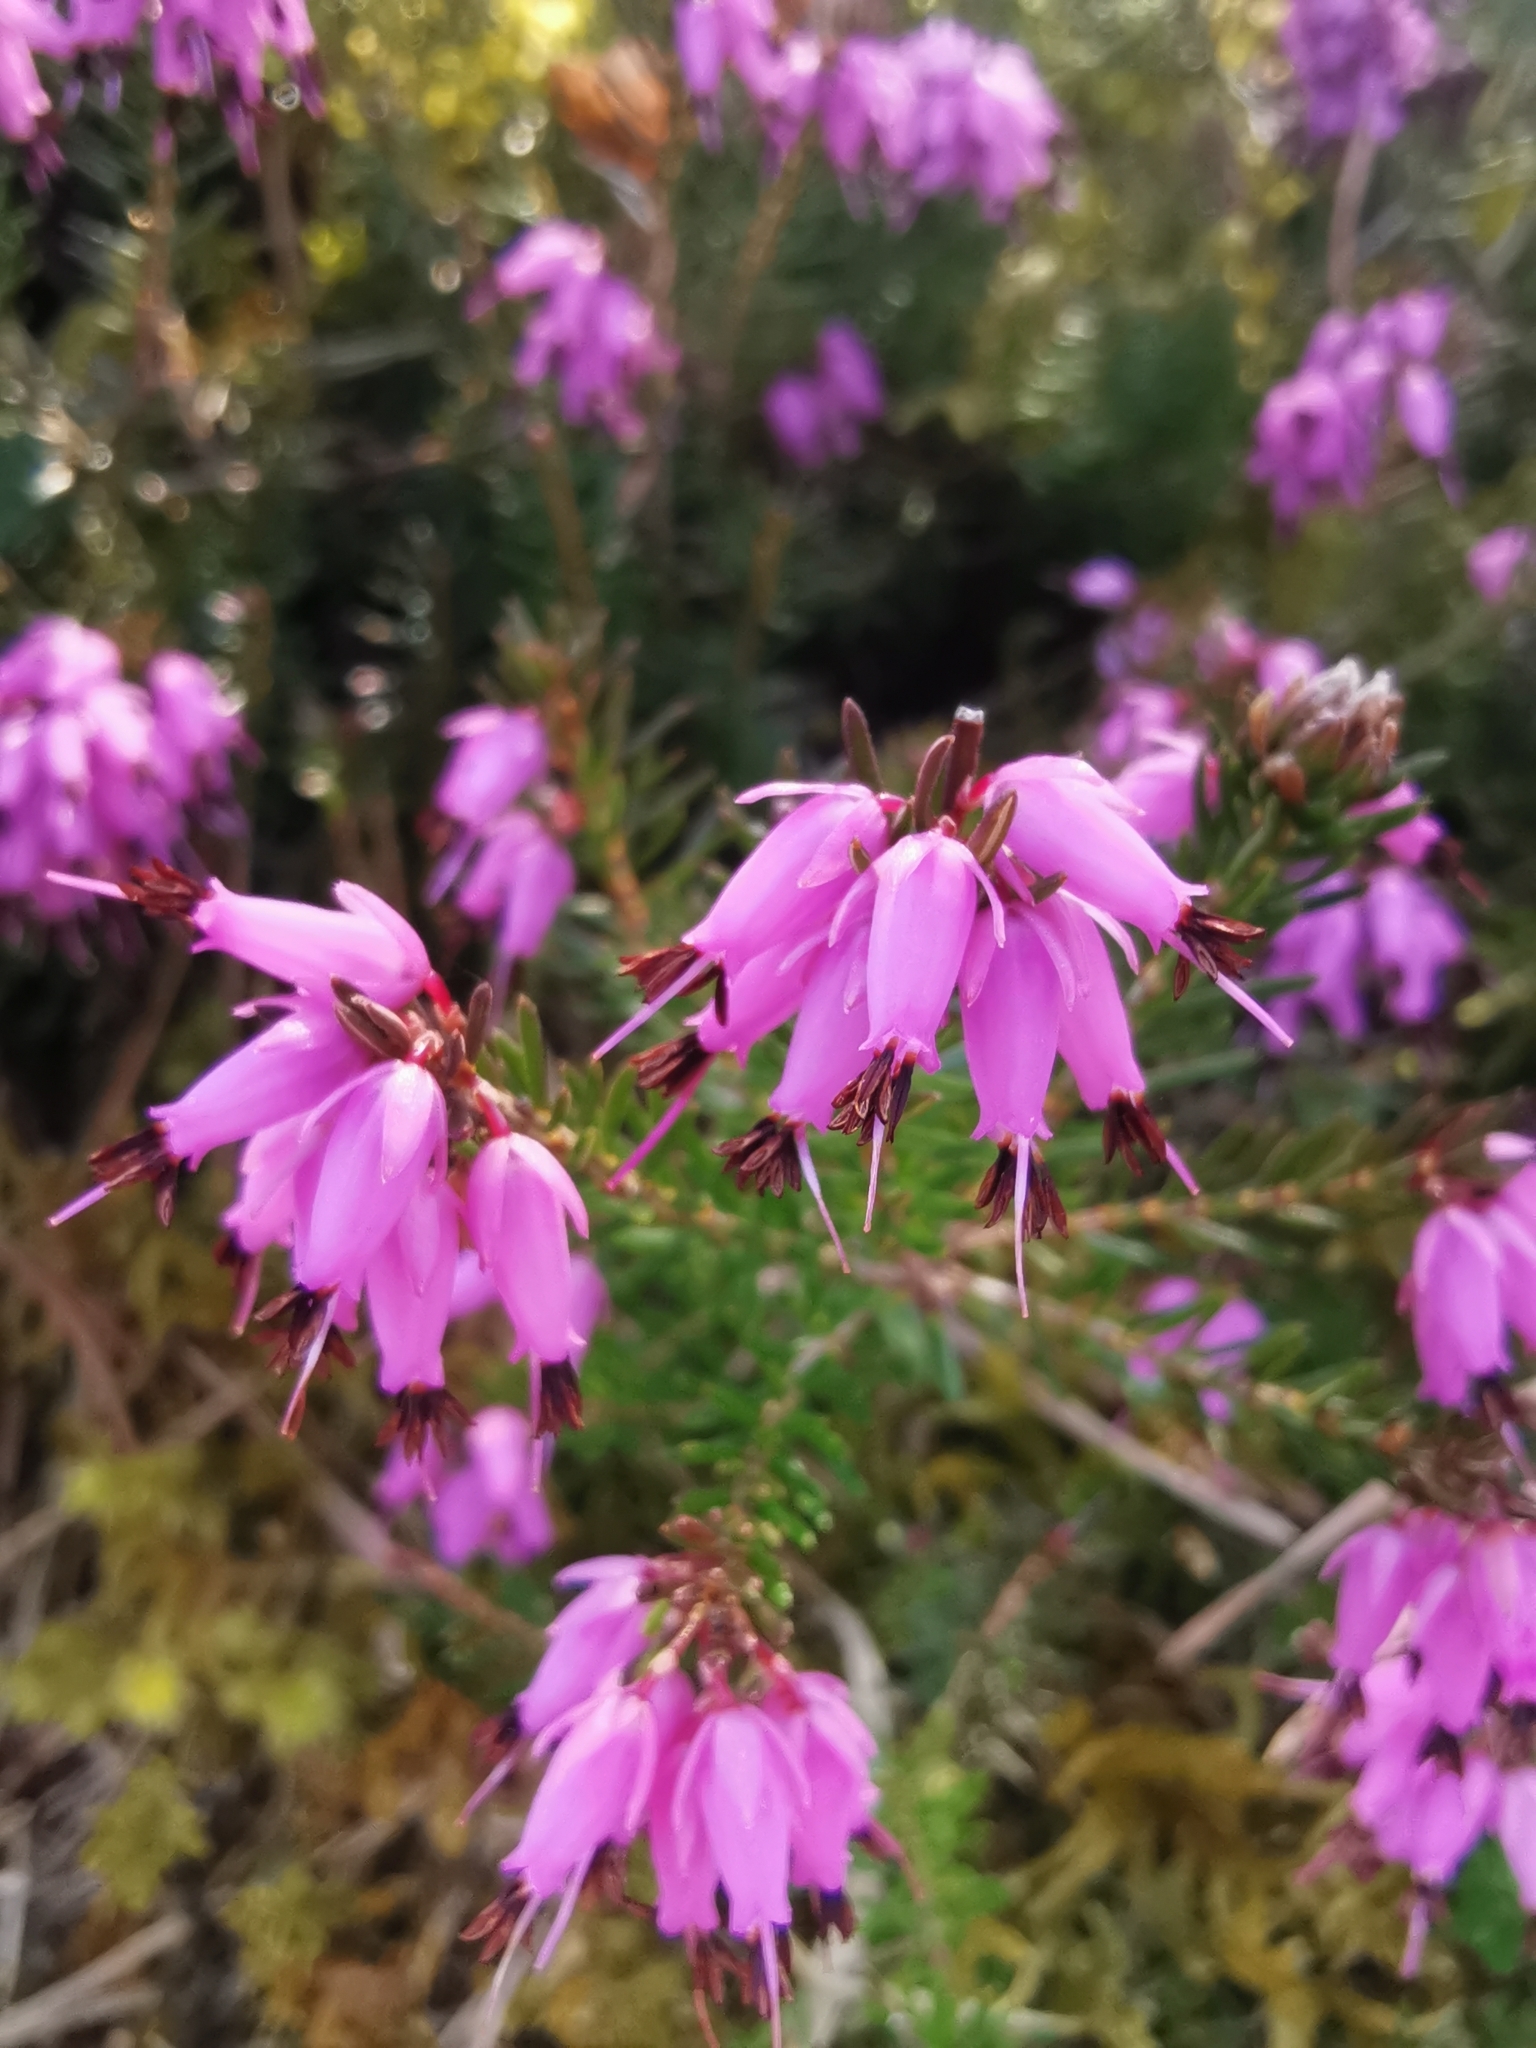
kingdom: Plantae
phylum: Tracheophyta
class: Magnoliopsida
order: Ericales
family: Ericaceae
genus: Erica
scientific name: Erica carnea
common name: Winter heath
